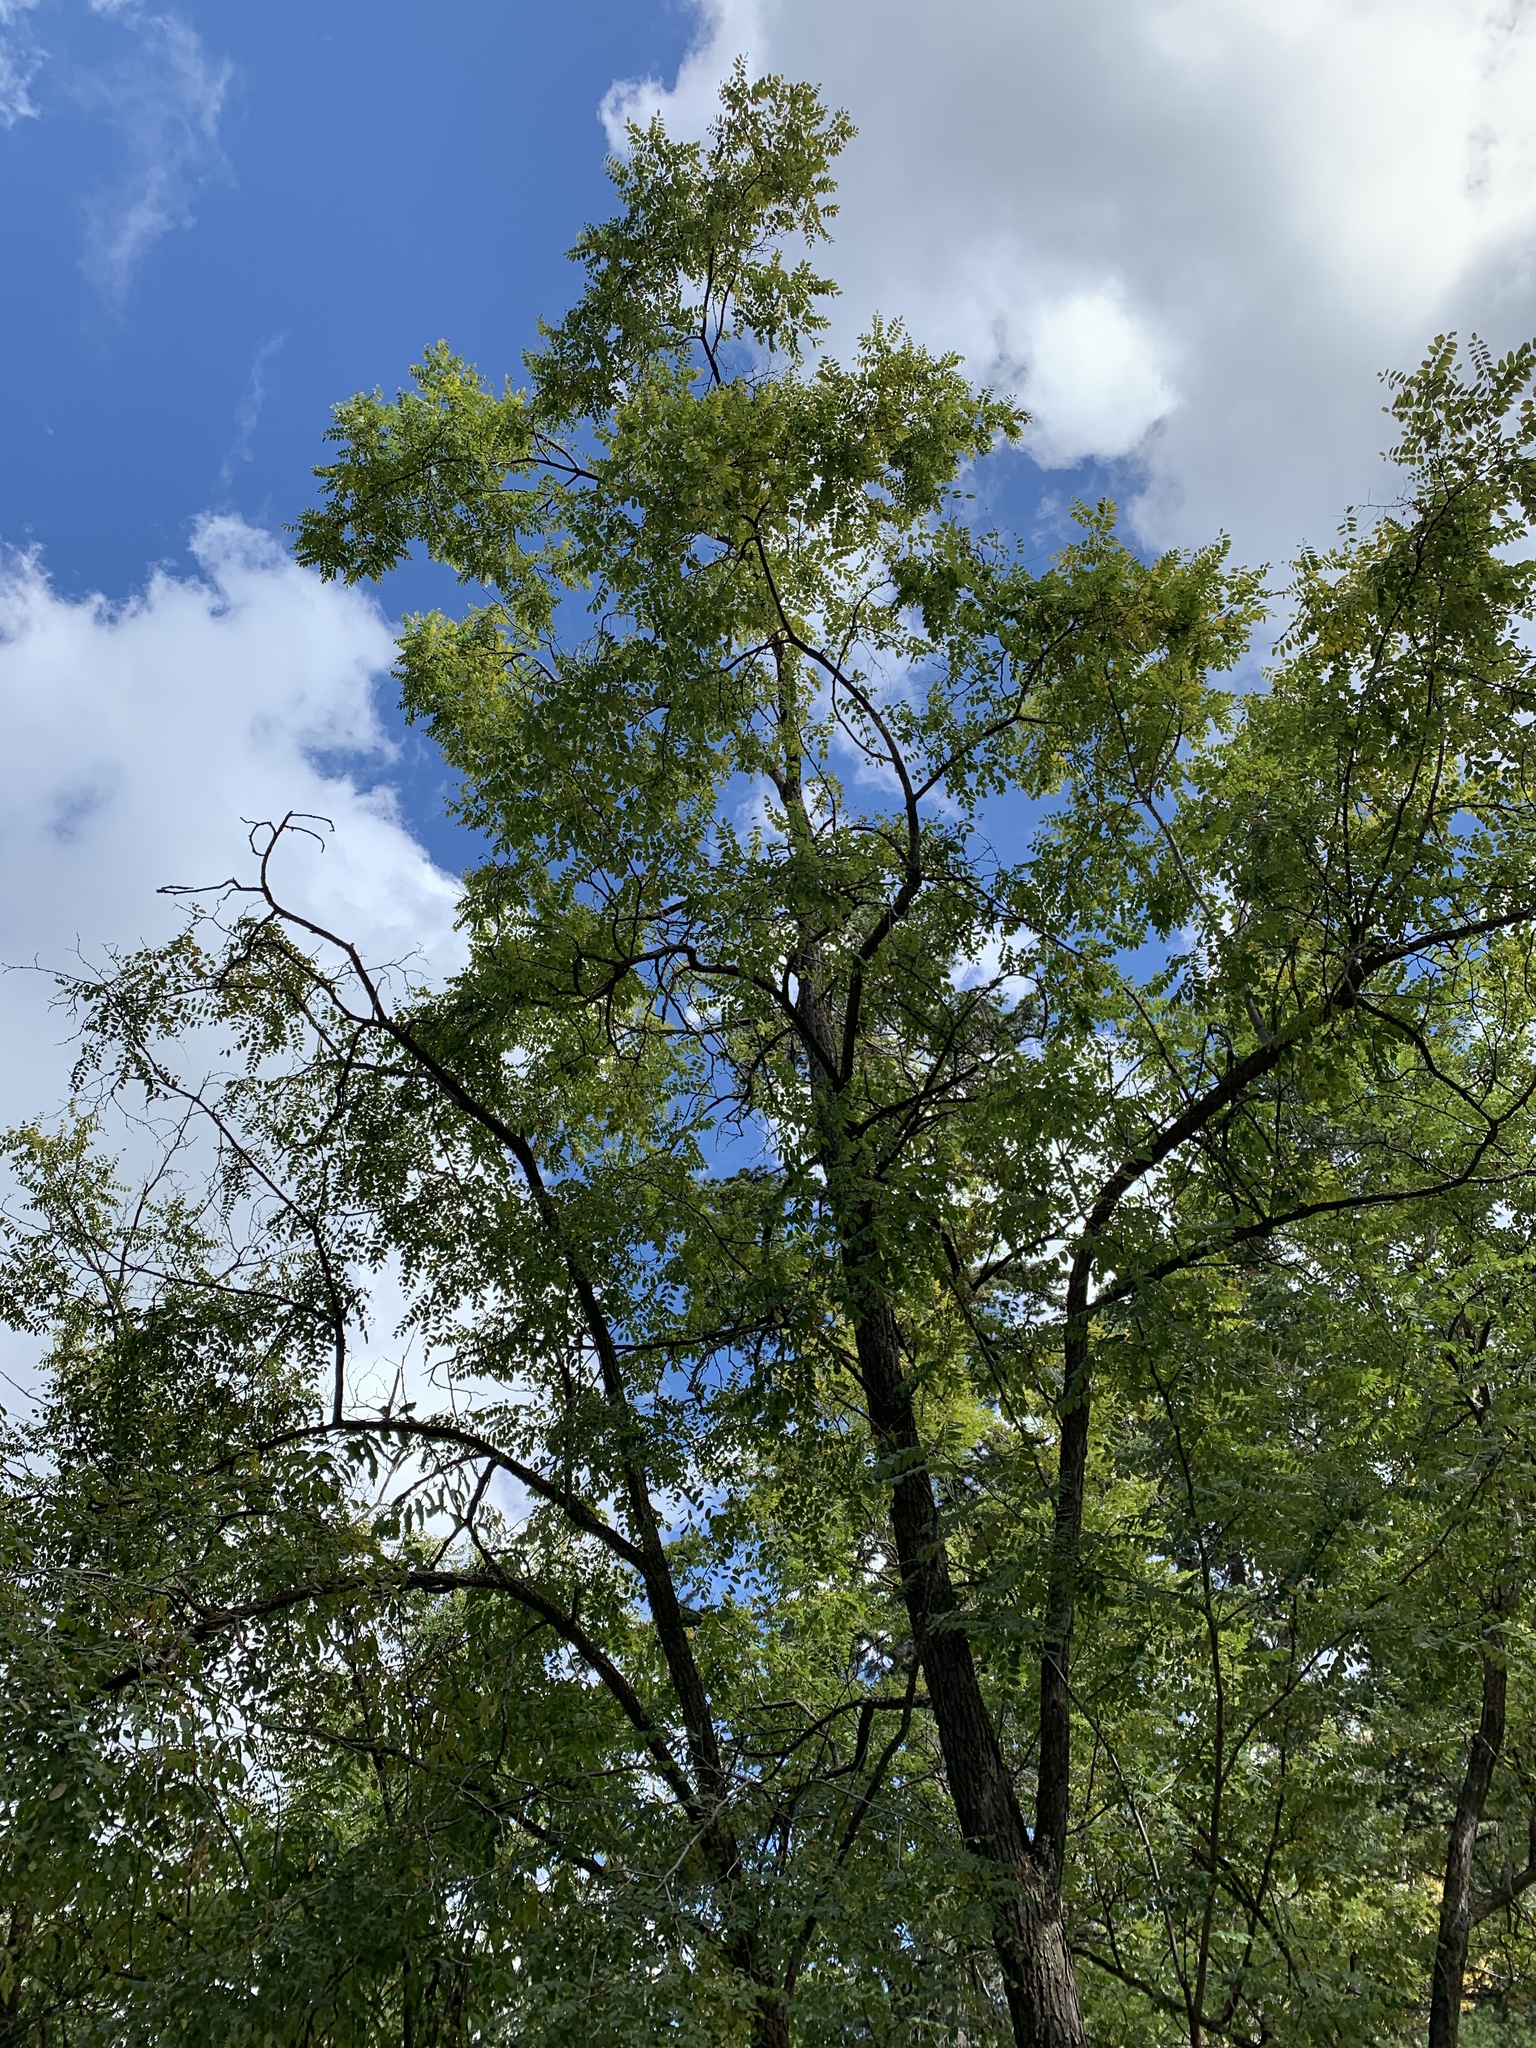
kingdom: Plantae
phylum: Tracheophyta
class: Magnoliopsida
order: Fabales
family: Fabaceae
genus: Robinia
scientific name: Robinia neomexicana
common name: New mexico locust
